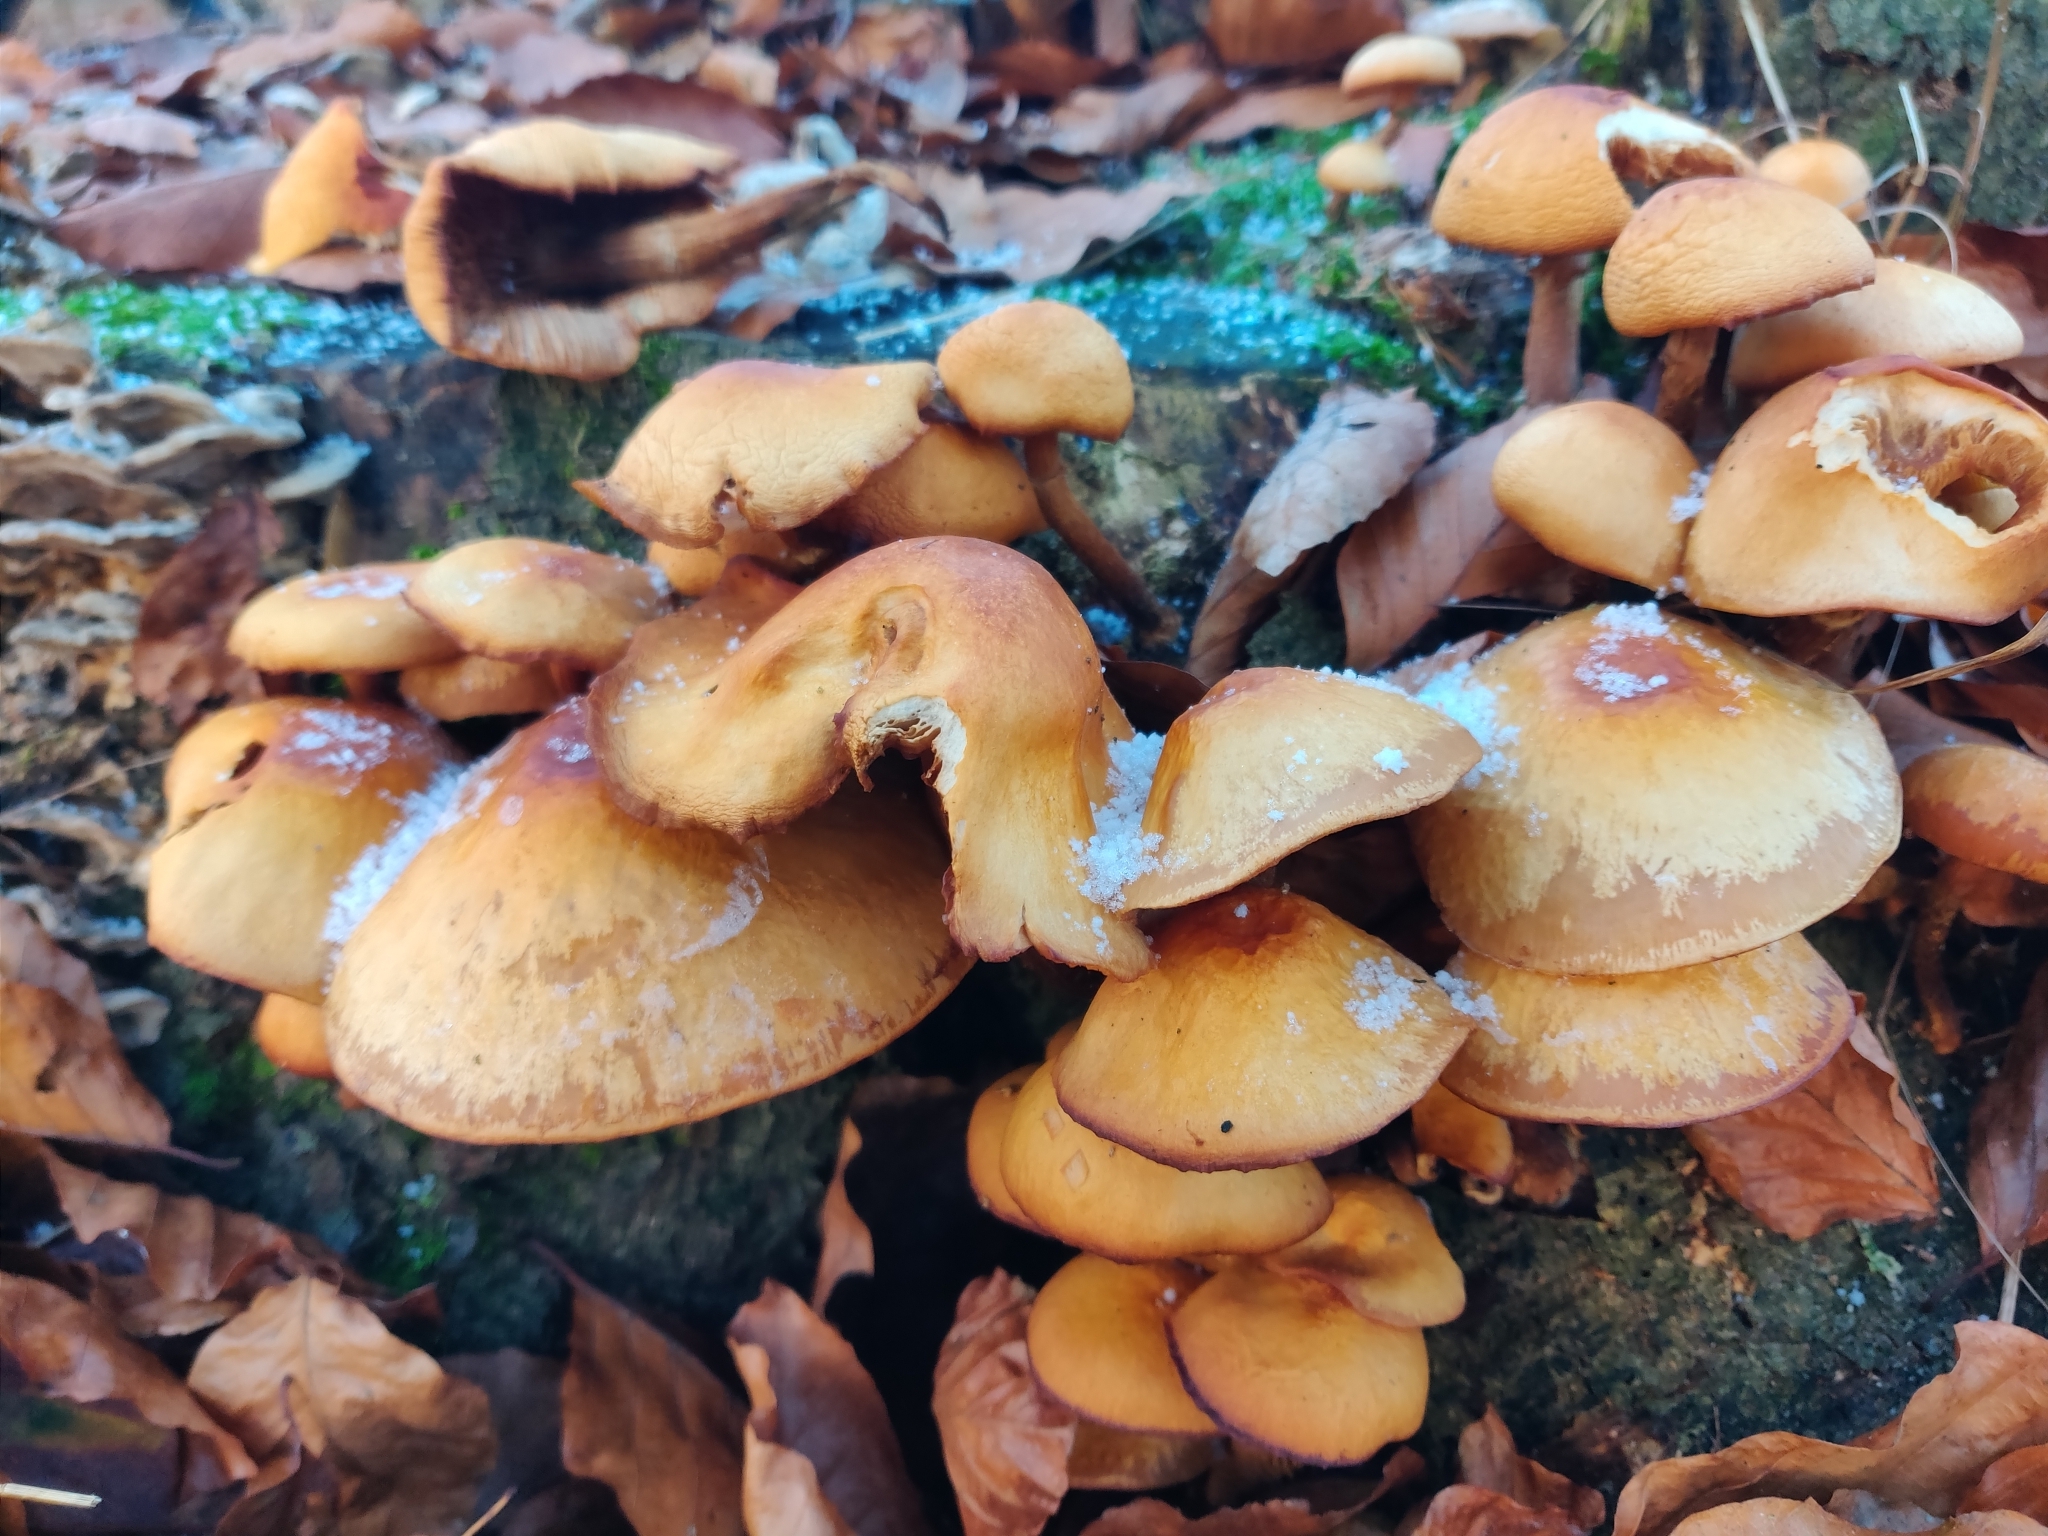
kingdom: Fungi
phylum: Basidiomycota
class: Agaricomycetes
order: Agaricales
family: Strophariaceae
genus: Kuehneromyces
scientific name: Kuehneromyces mutabilis
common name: Sheathed woodtuft
